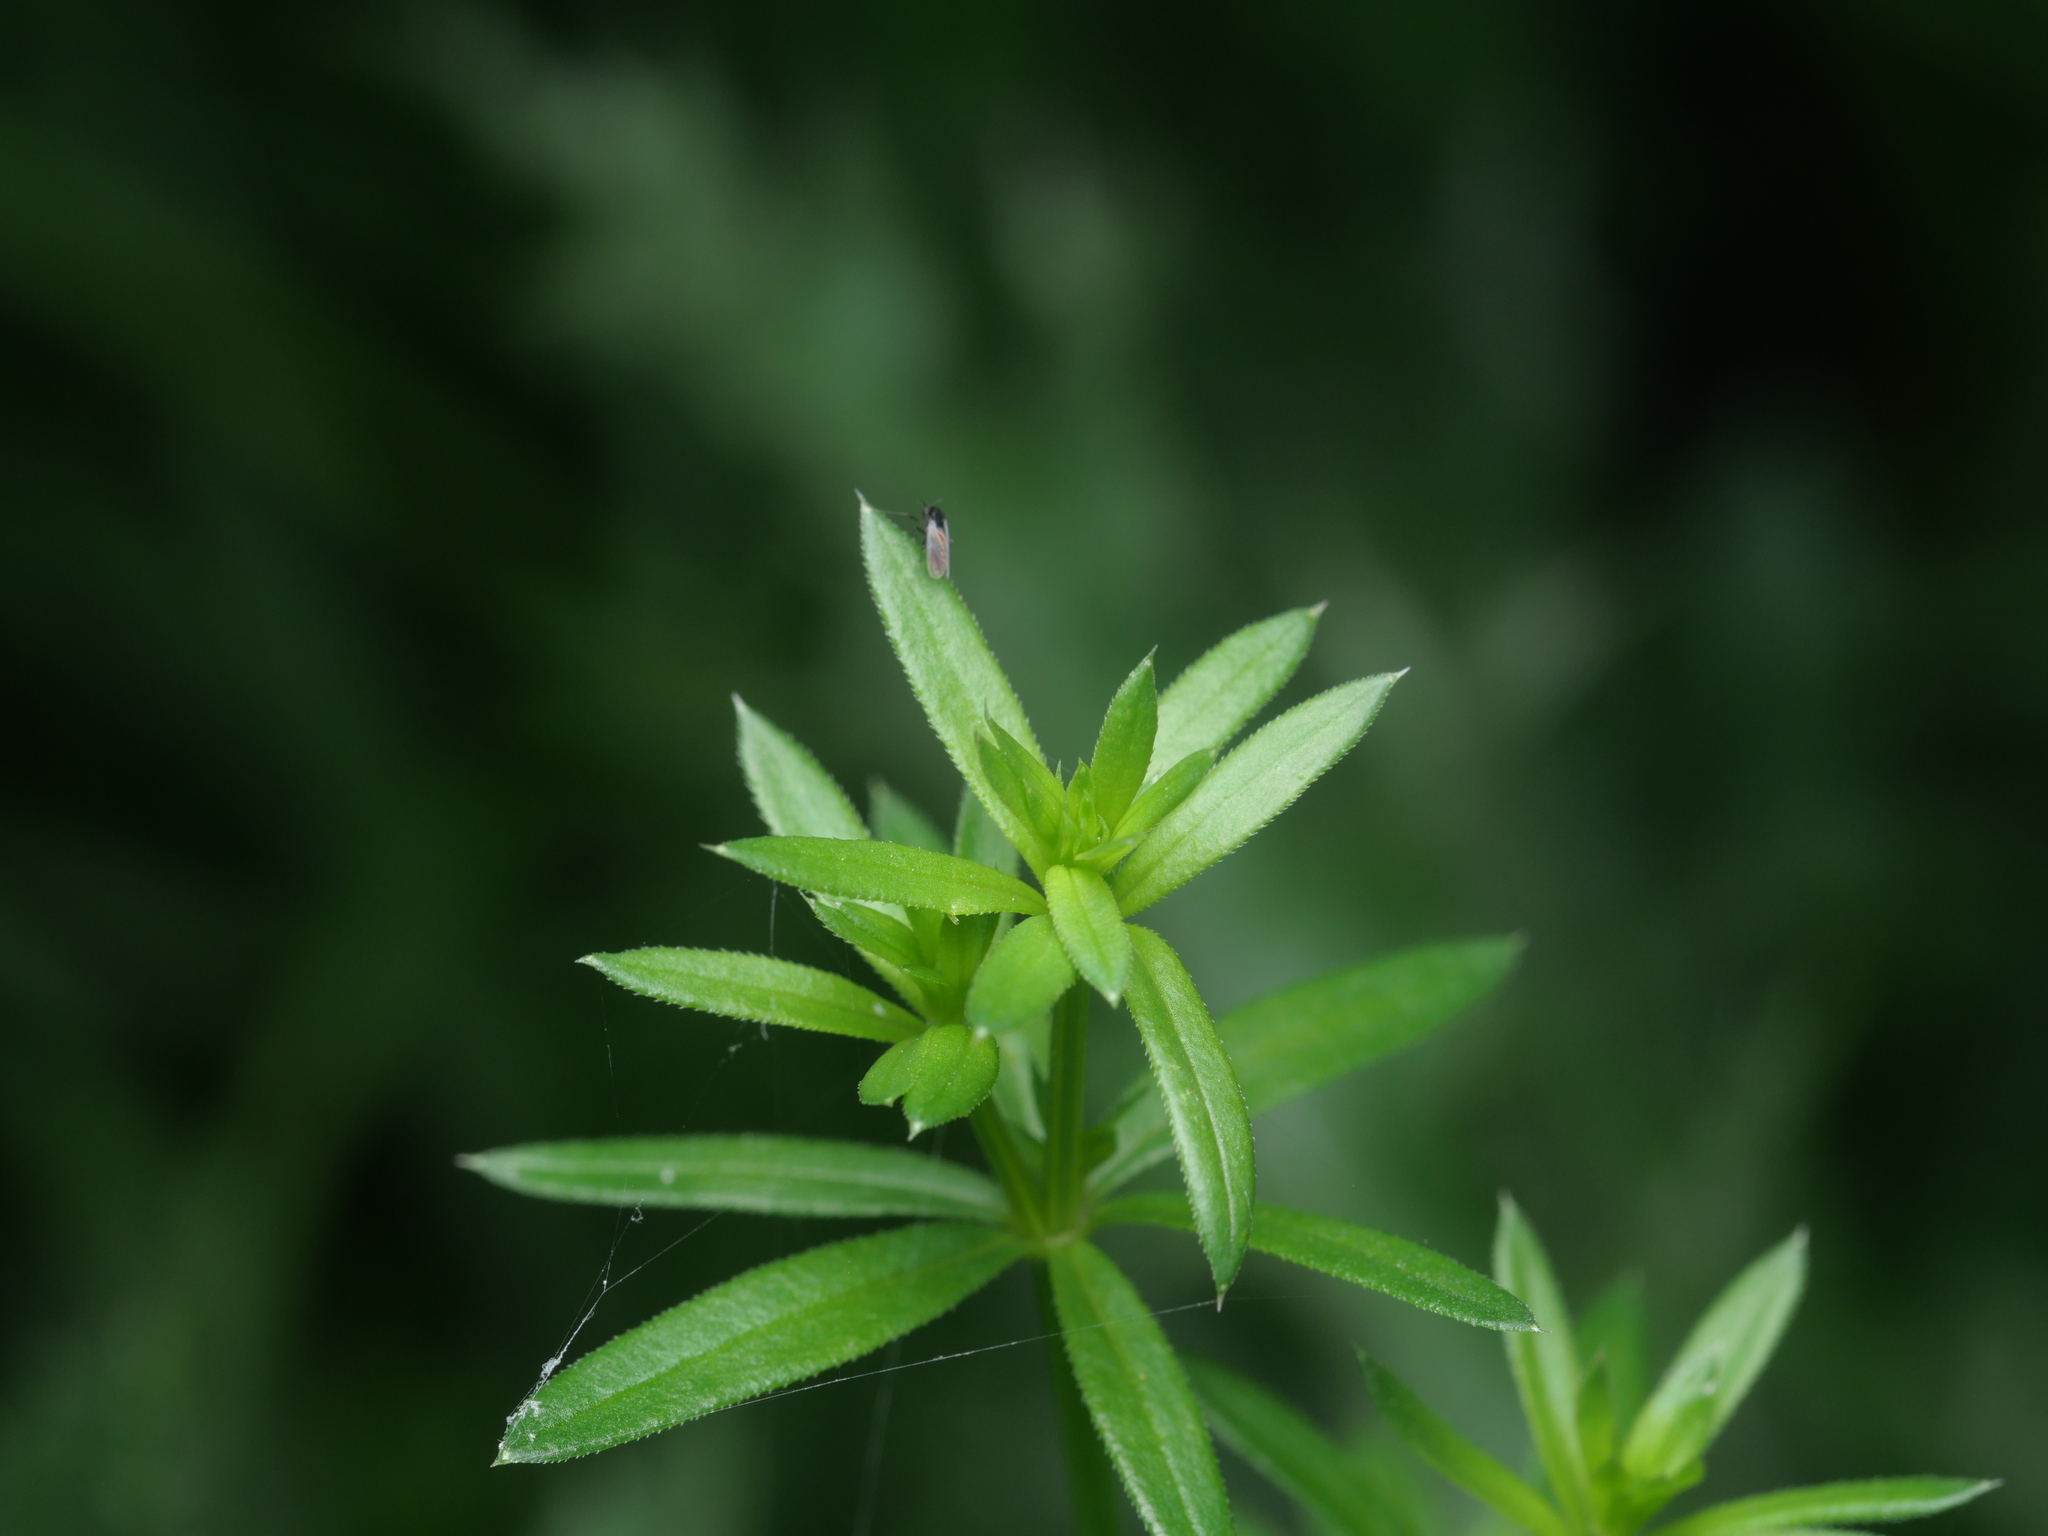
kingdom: Plantae
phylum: Tracheophyta
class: Magnoliopsida
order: Gentianales
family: Rubiaceae
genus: Galium
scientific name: Galium aparine
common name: Cleavers
